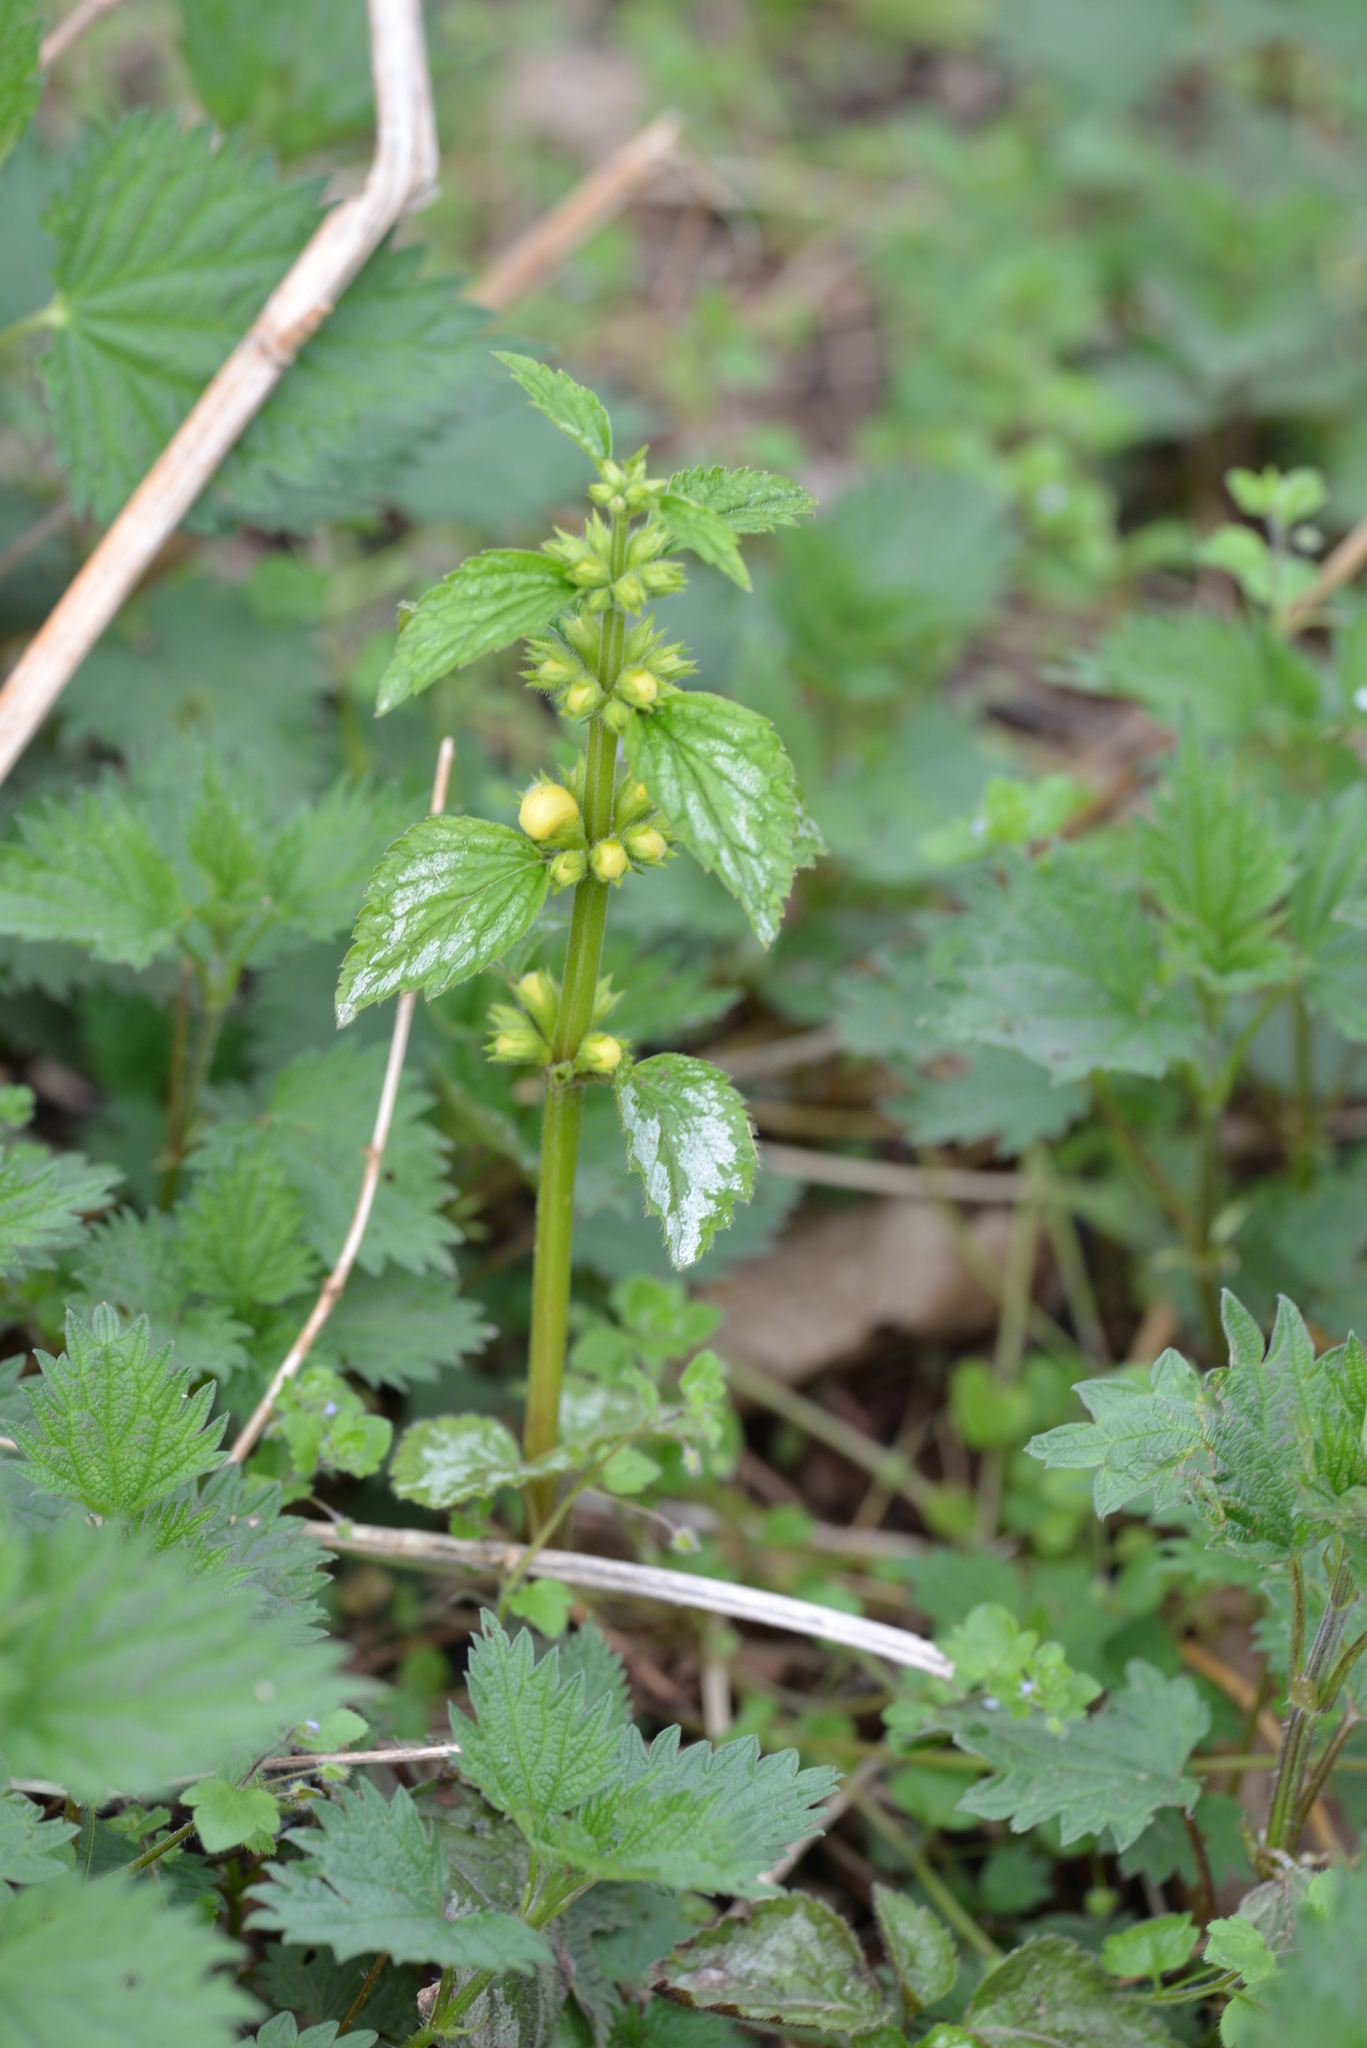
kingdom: Plantae
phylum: Tracheophyta
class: Magnoliopsida
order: Lamiales
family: Lamiaceae
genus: Lamium
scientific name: Lamium galeobdolon
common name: Yellow archangel
